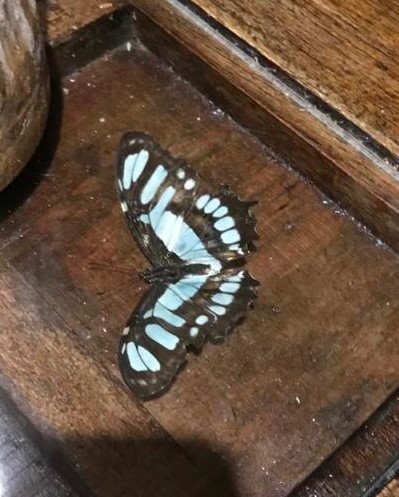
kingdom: Animalia
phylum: Arthropoda
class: Insecta
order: Lepidoptera
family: Nymphalidae
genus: Siproeta
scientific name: Siproeta stelenes
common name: Malachite
